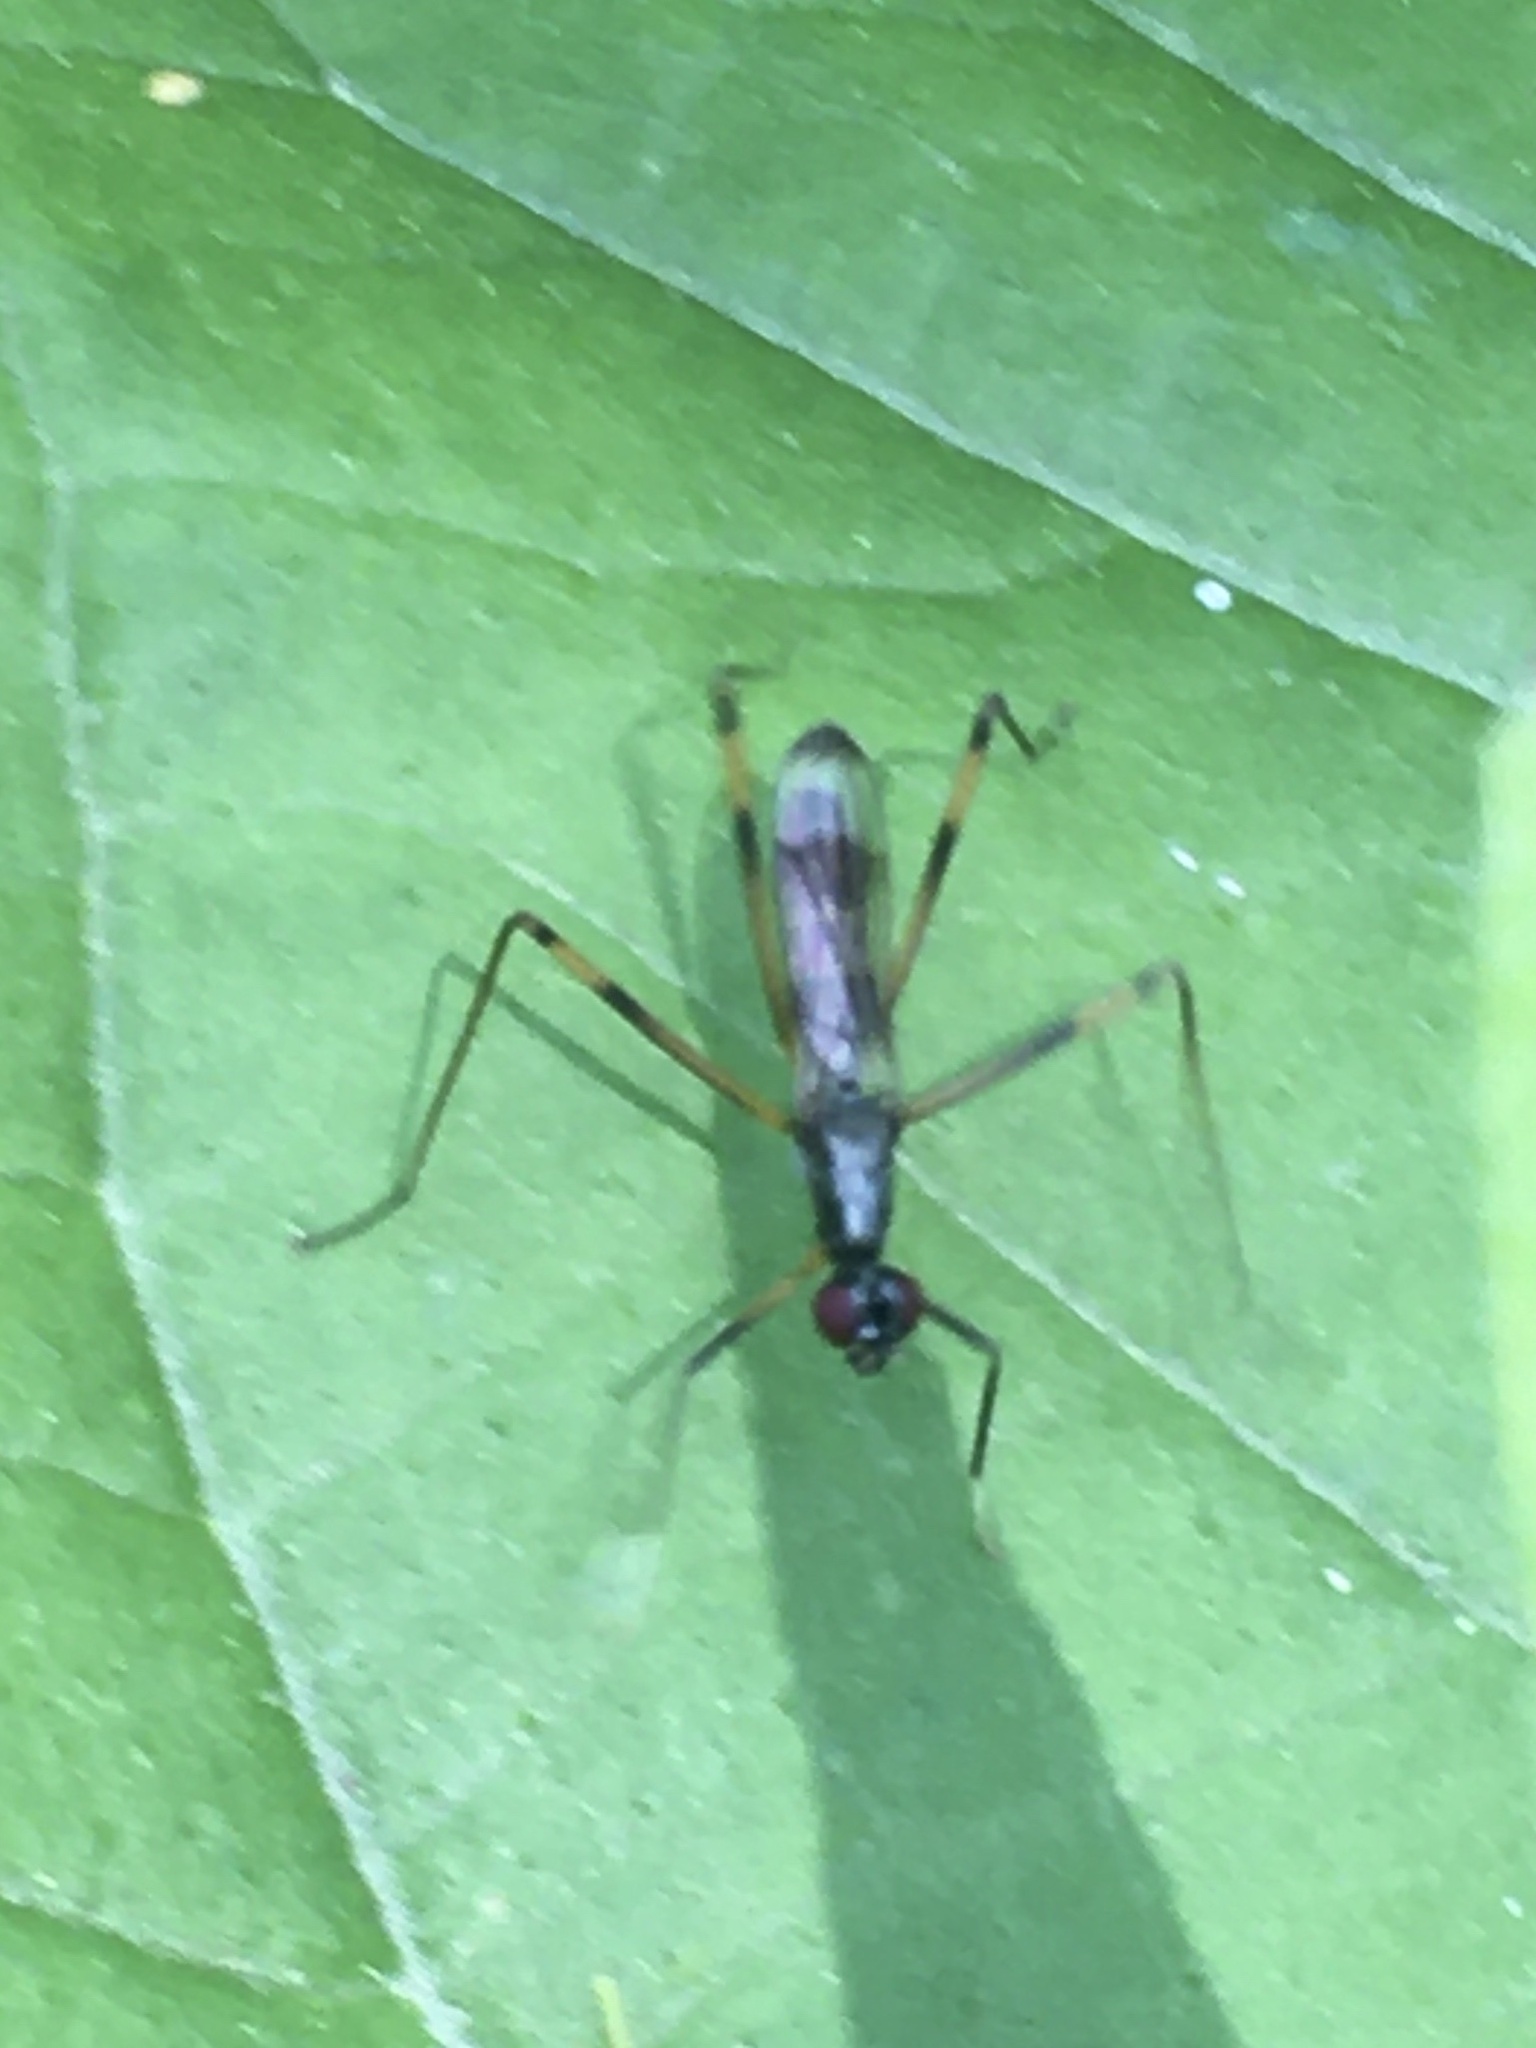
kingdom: Animalia
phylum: Arthropoda
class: Insecta
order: Diptera
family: Micropezidae
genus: Rainieria
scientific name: Rainieria antennaepes
